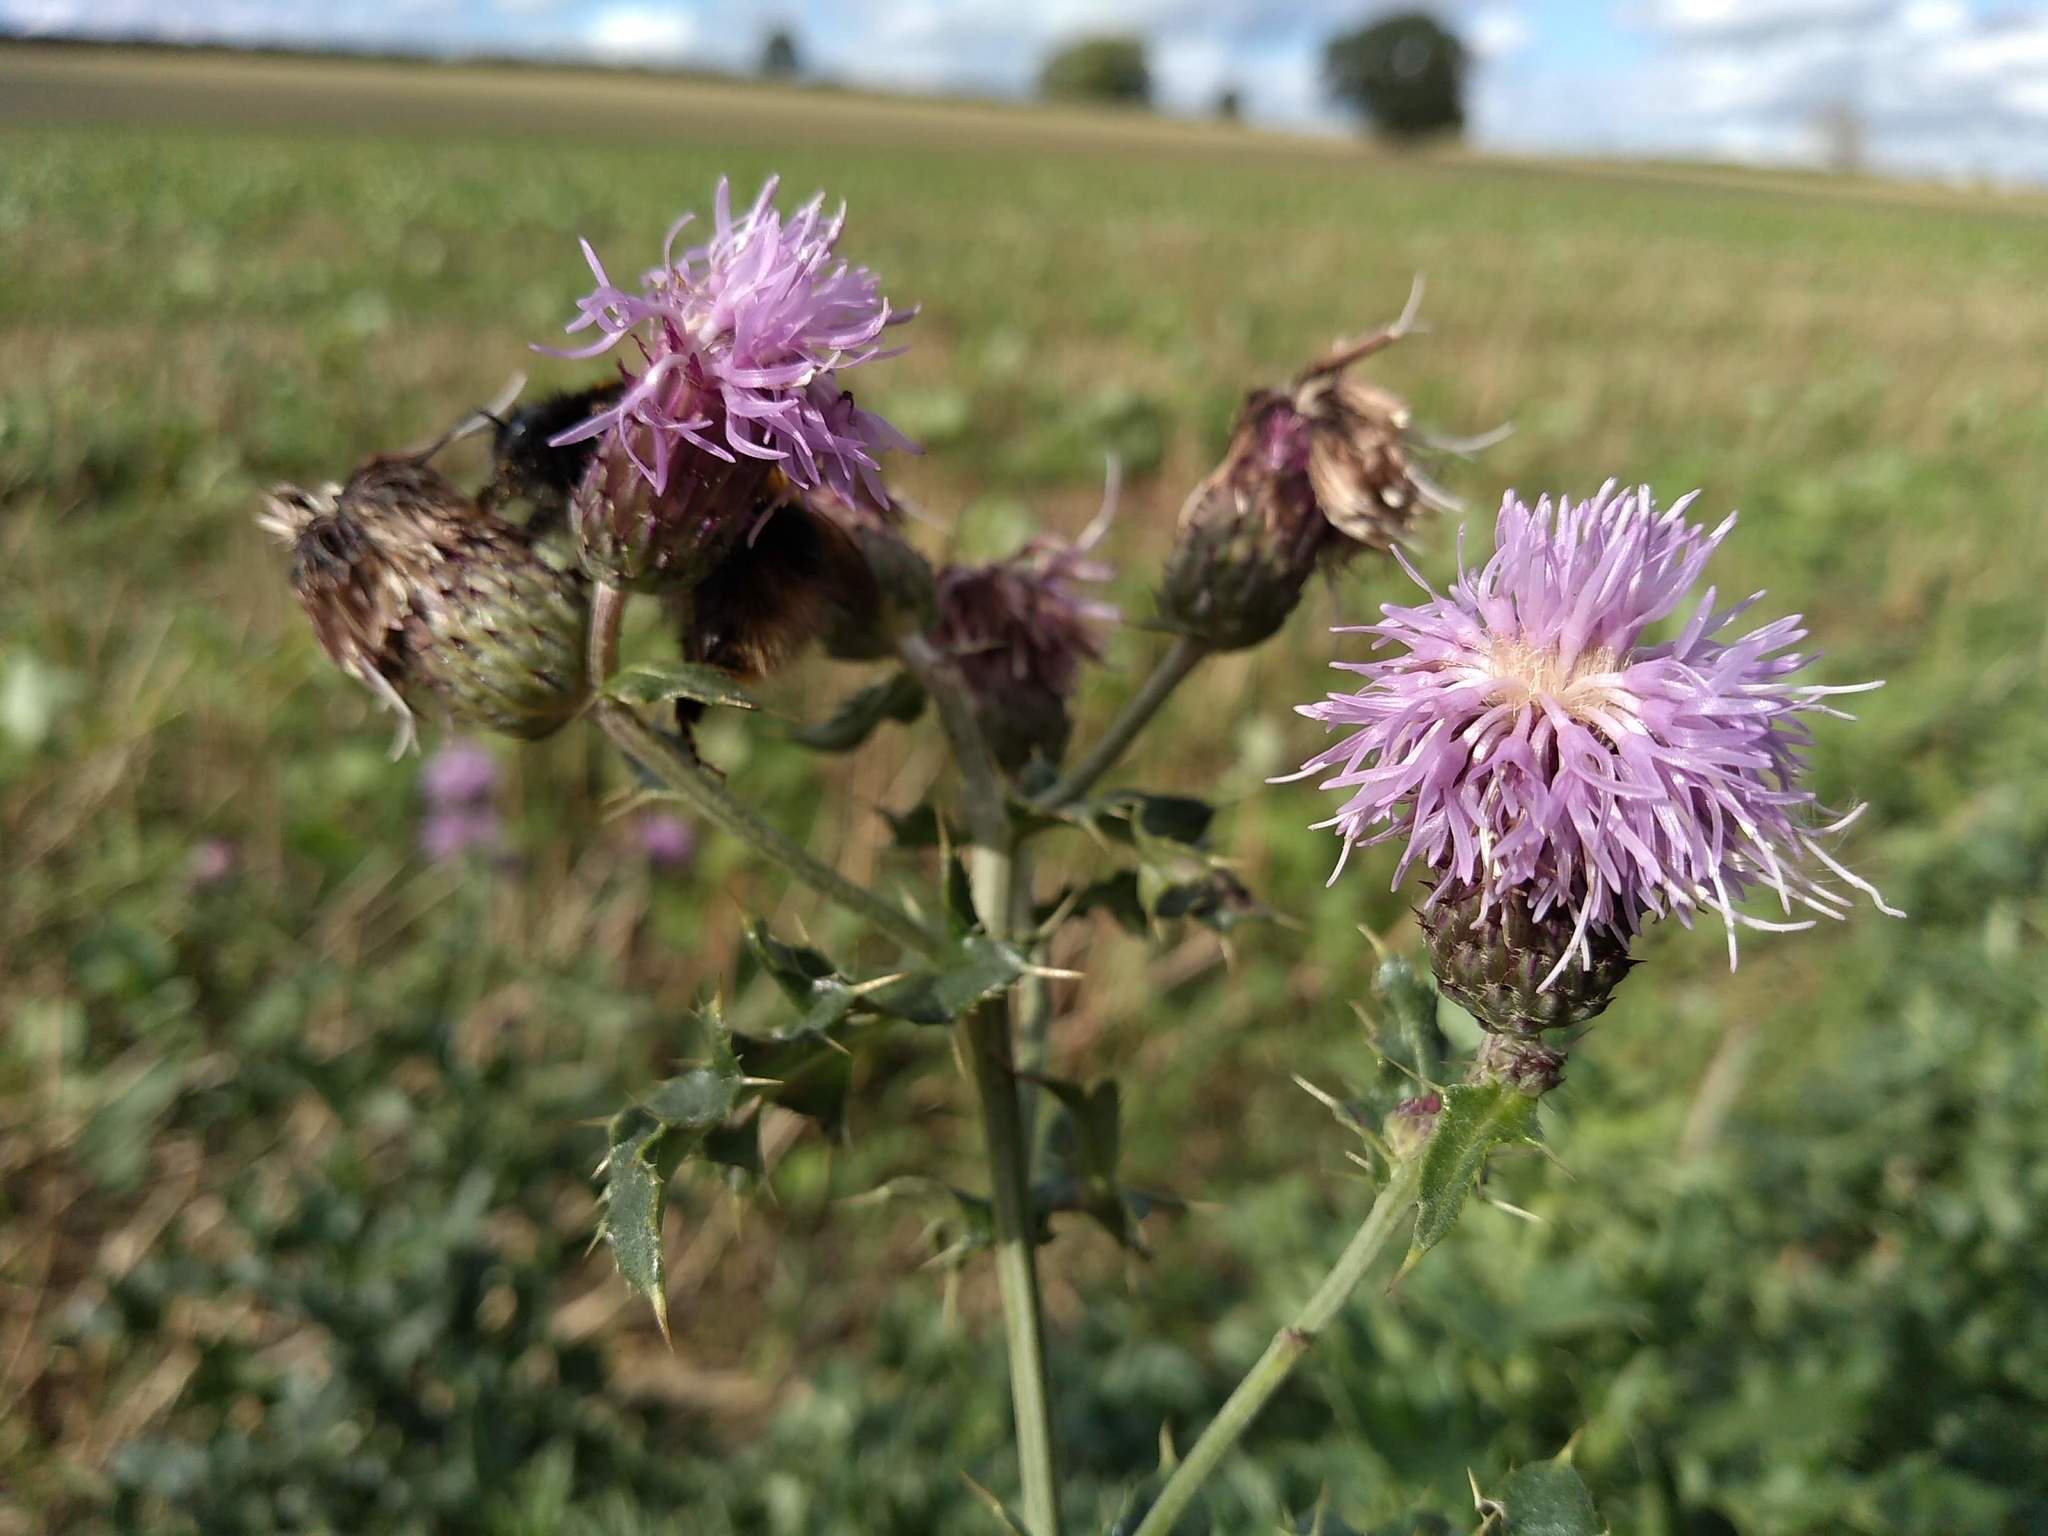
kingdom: Plantae
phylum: Tracheophyta
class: Magnoliopsida
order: Asterales
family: Asteraceae
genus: Cirsium
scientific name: Cirsium arvense
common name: Creeping thistle
